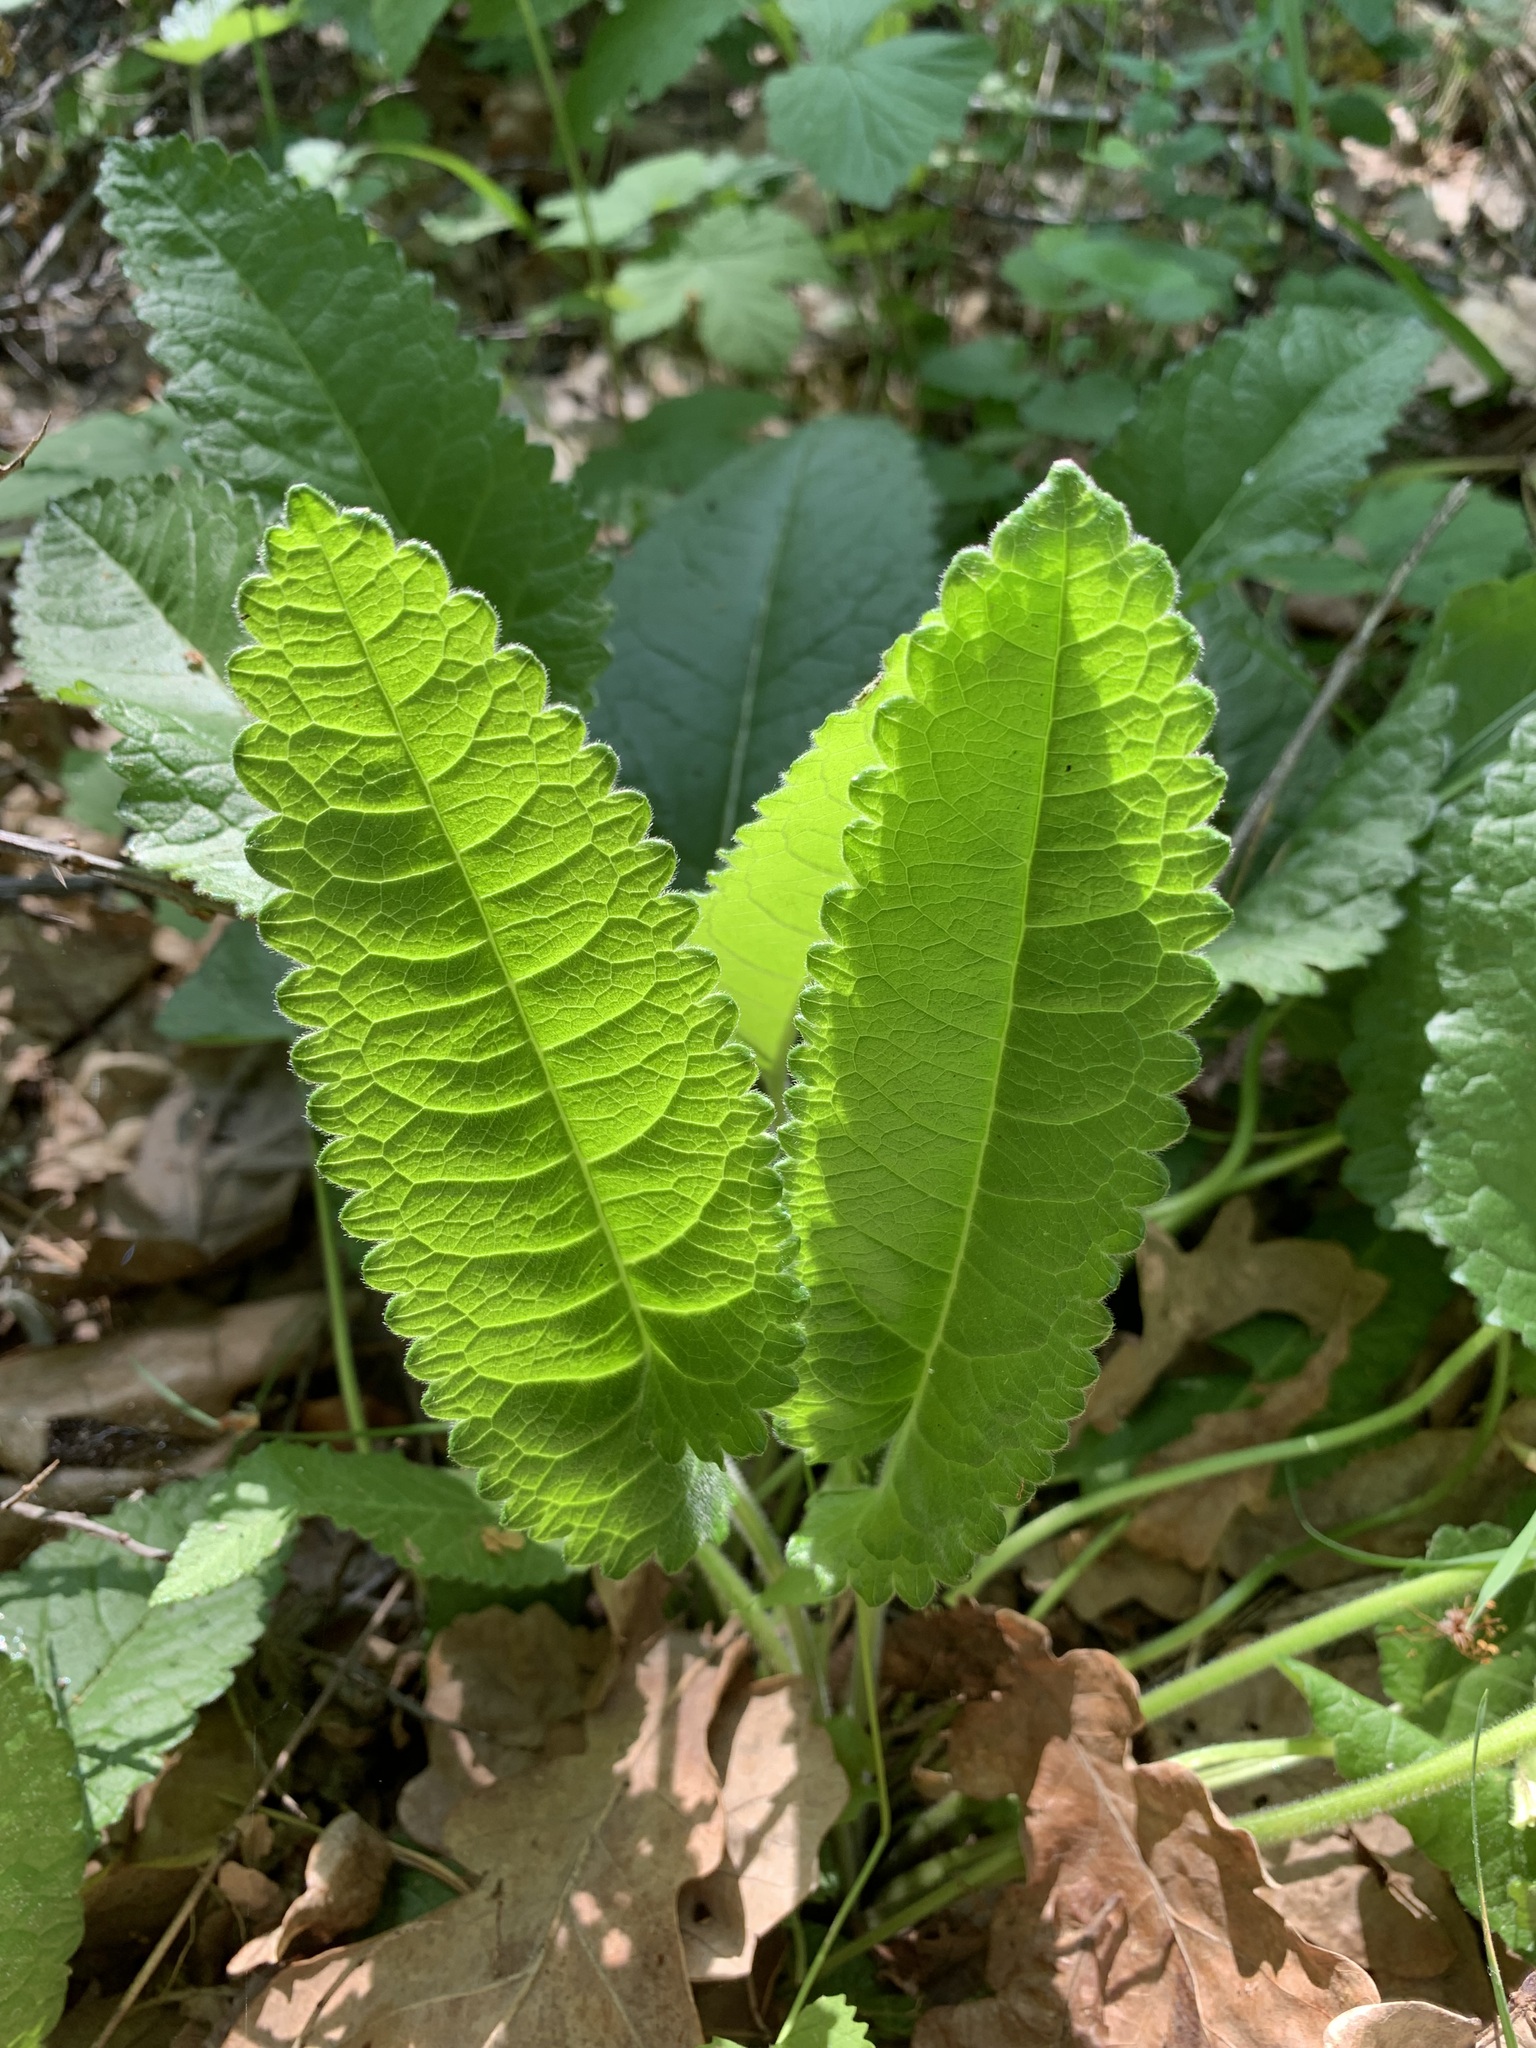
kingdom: Plantae
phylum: Tracheophyta
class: Magnoliopsida
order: Lamiales
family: Lamiaceae
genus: Betonica
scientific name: Betonica officinalis
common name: Bishop's-wort
